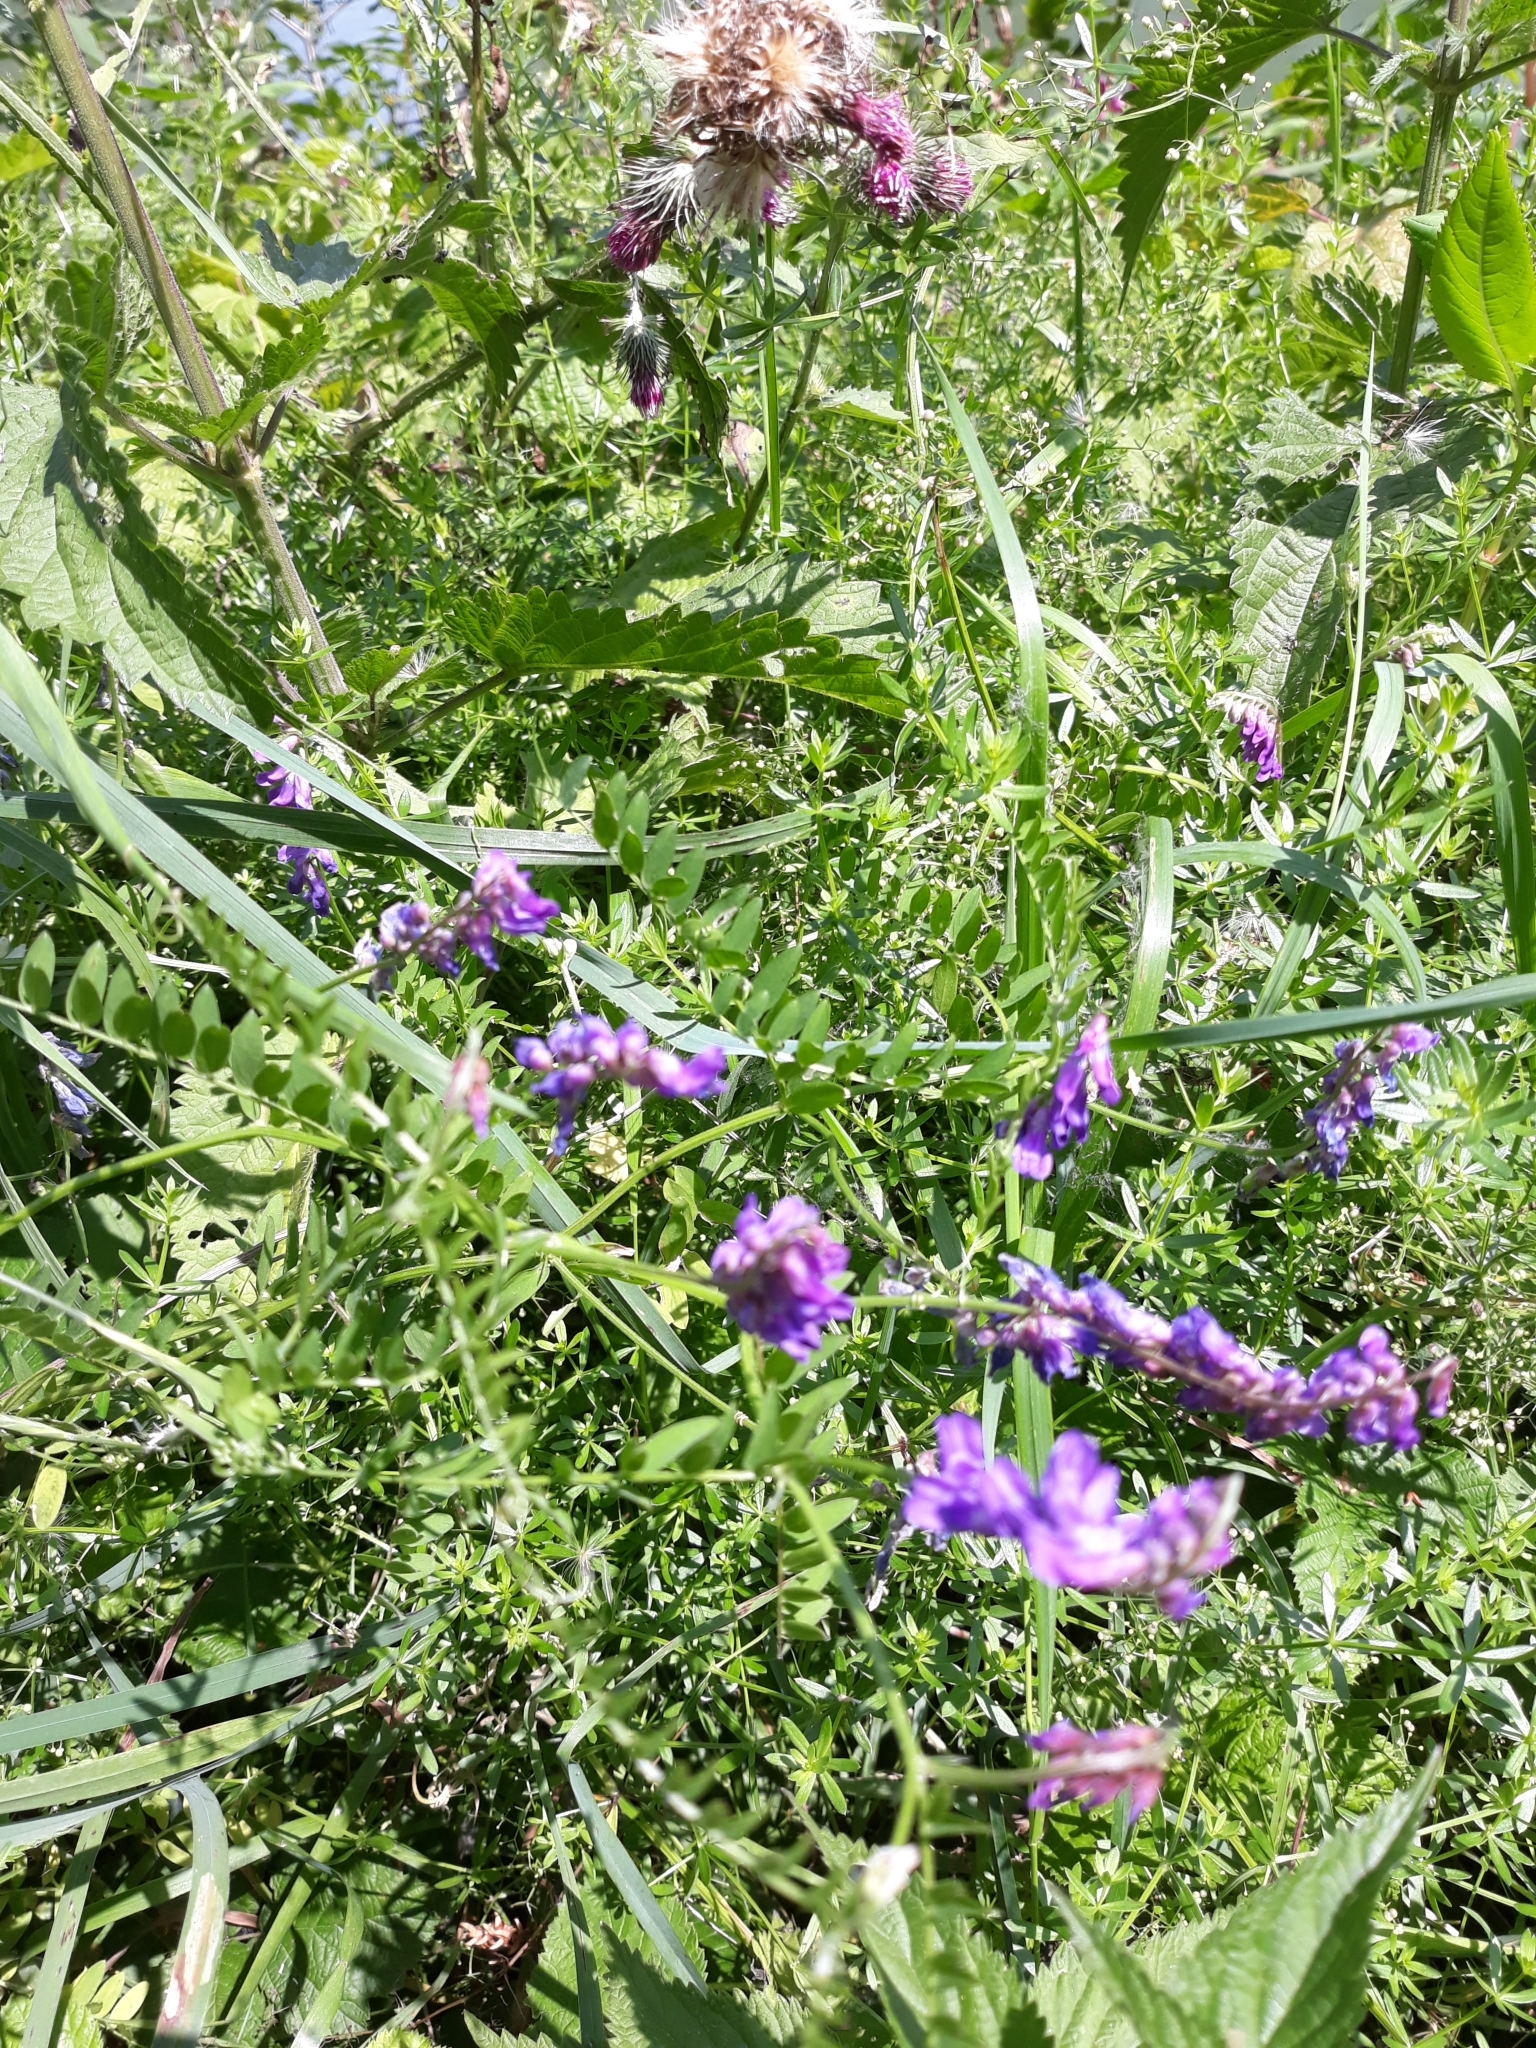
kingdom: Plantae
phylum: Tracheophyta
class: Magnoliopsida
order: Fabales
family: Fabaceae
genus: Vicia
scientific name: Vicia cracca
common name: Bird vetch
